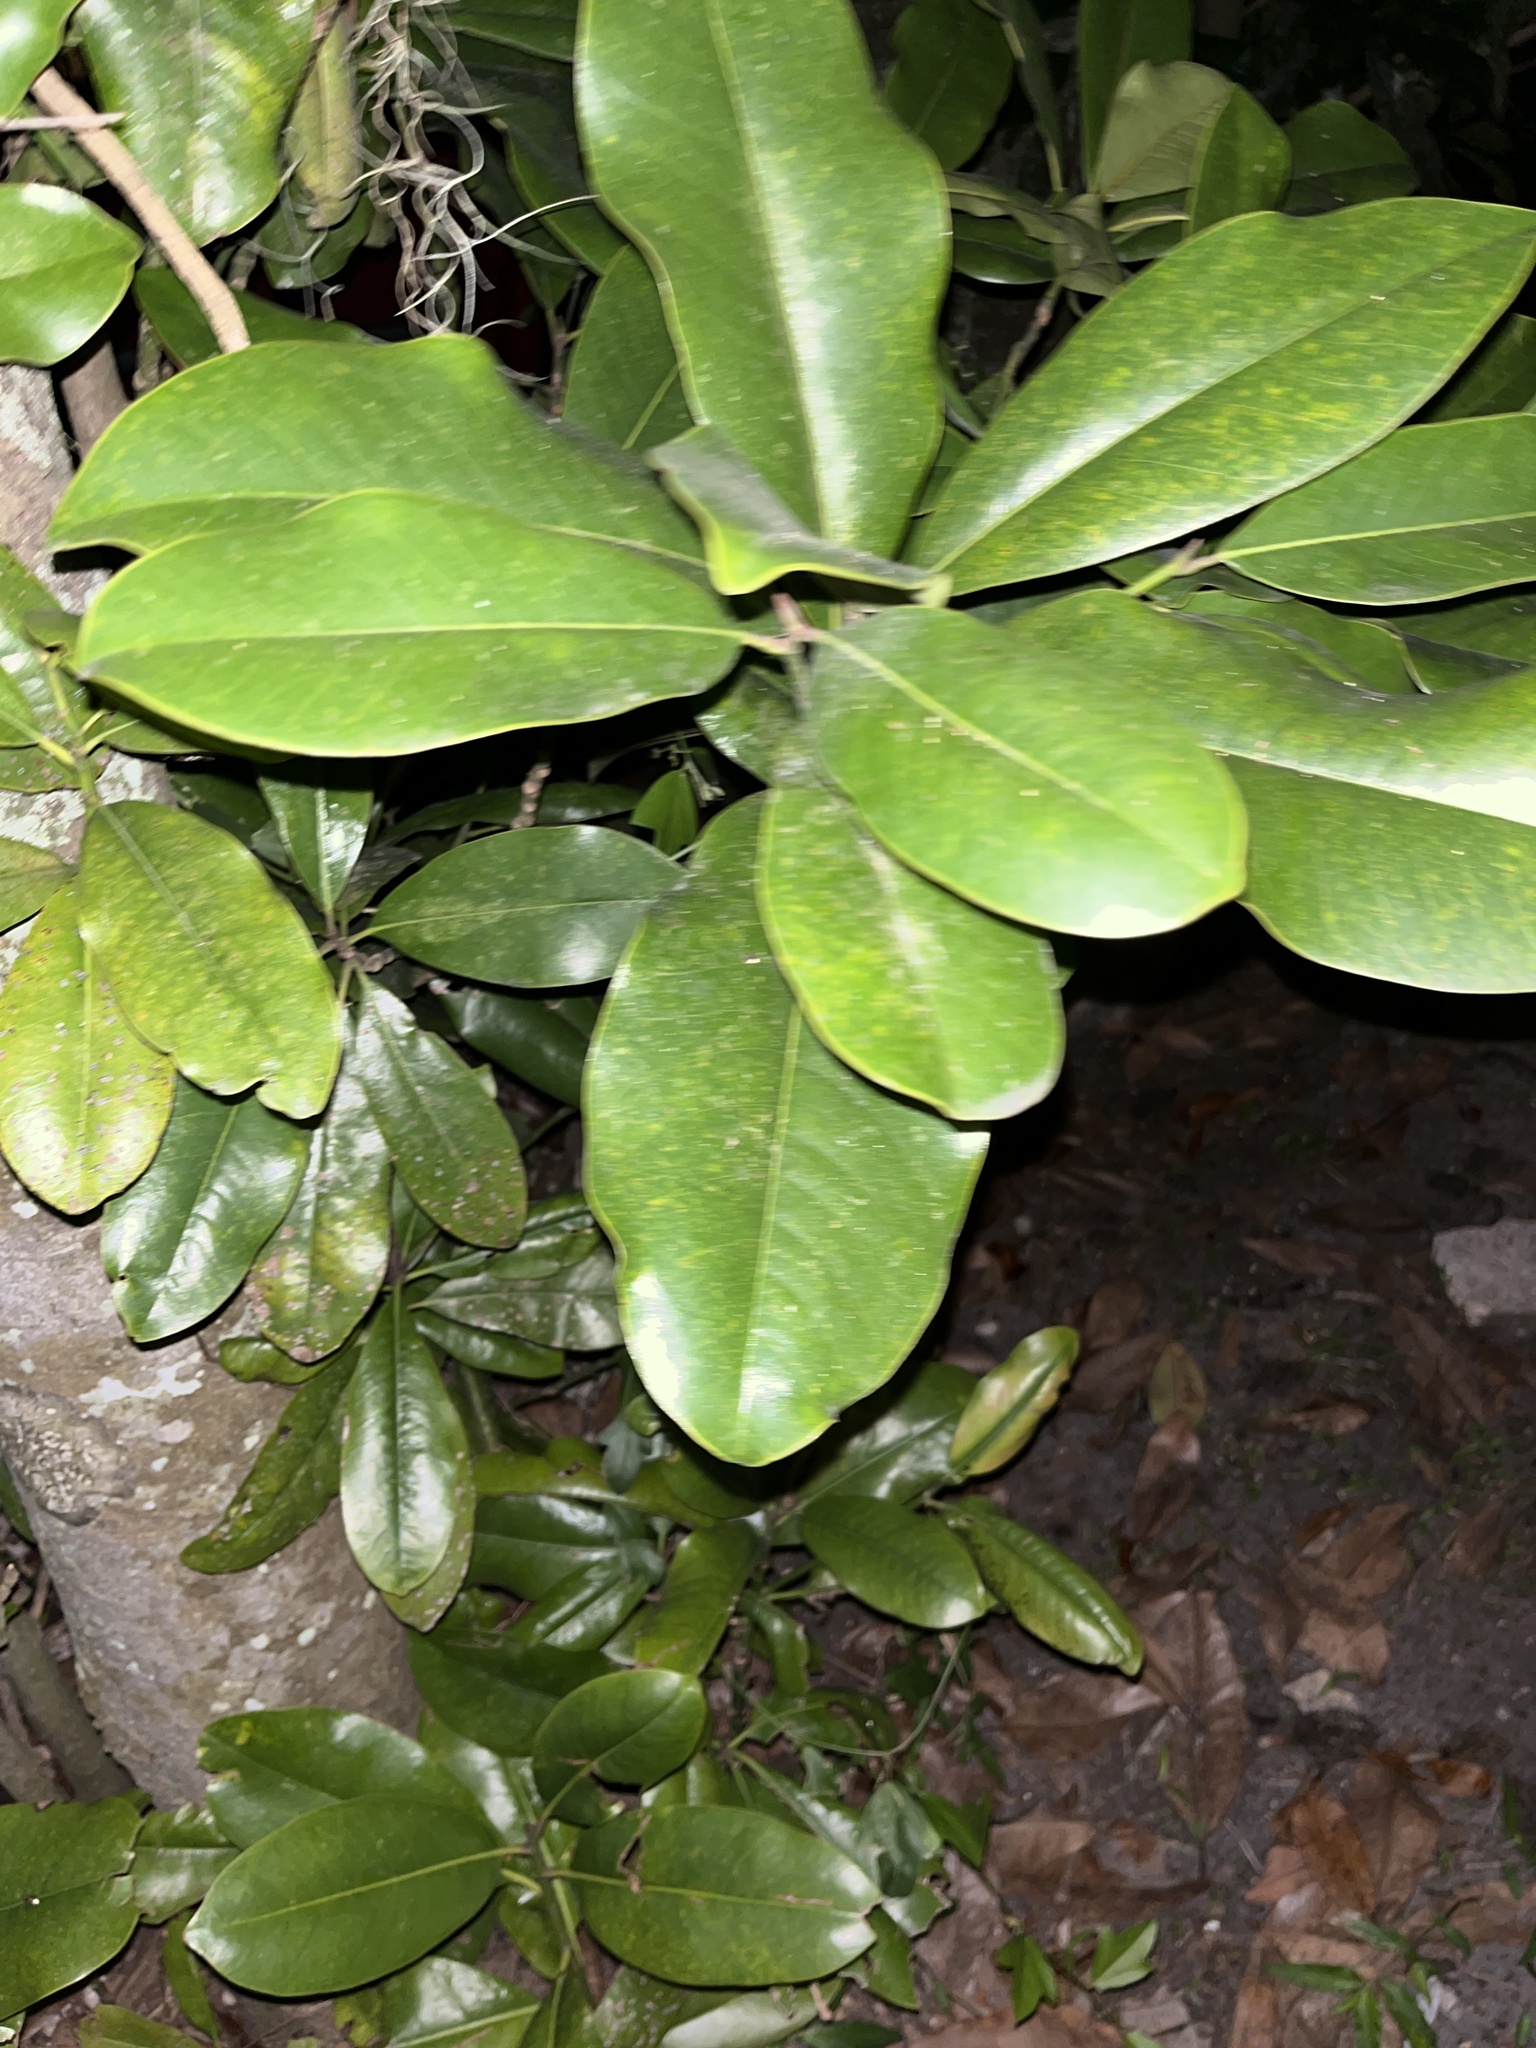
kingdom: Plantae
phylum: Tracheophyta
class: Magnoliopsida
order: Magnoliales
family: Magnoliaceae
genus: Magnolia
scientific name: Magnolia grandiflora
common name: Southern magnolia
